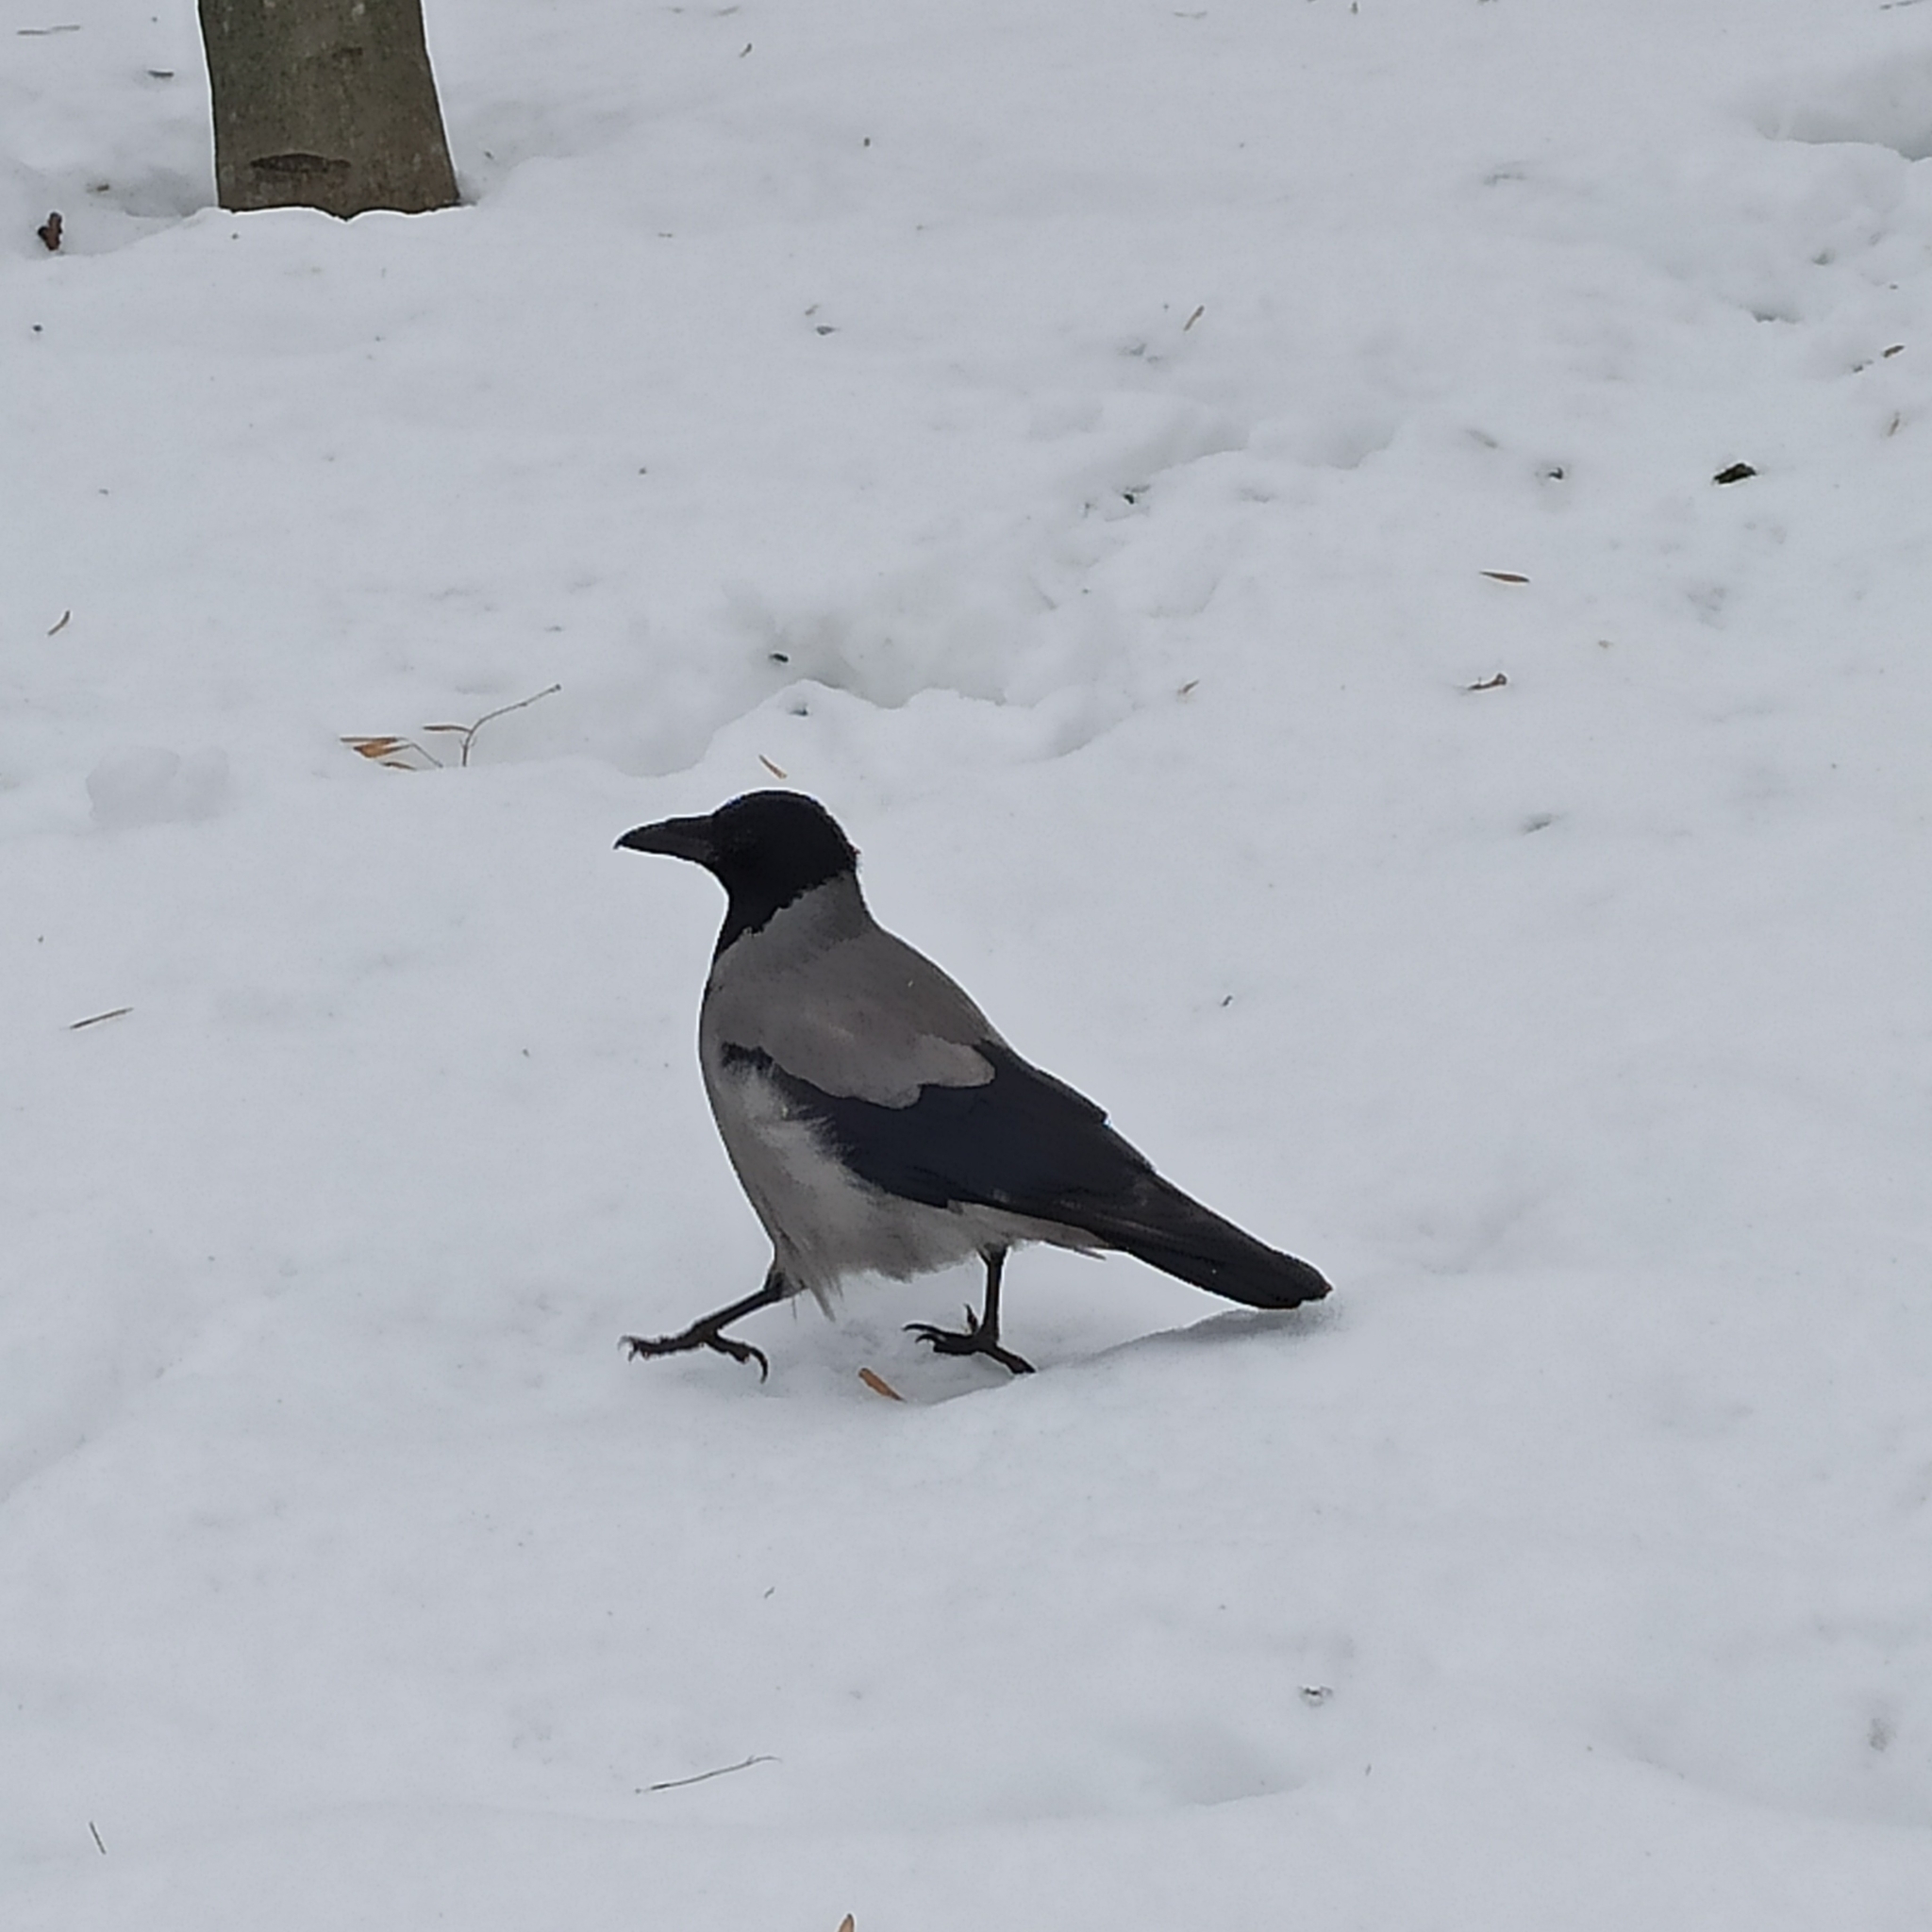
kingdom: Animalia
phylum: Chordata
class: Aves
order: Passeriformes
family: Corvidae
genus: Corvus
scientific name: Corvus cornix
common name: Hooded crow
